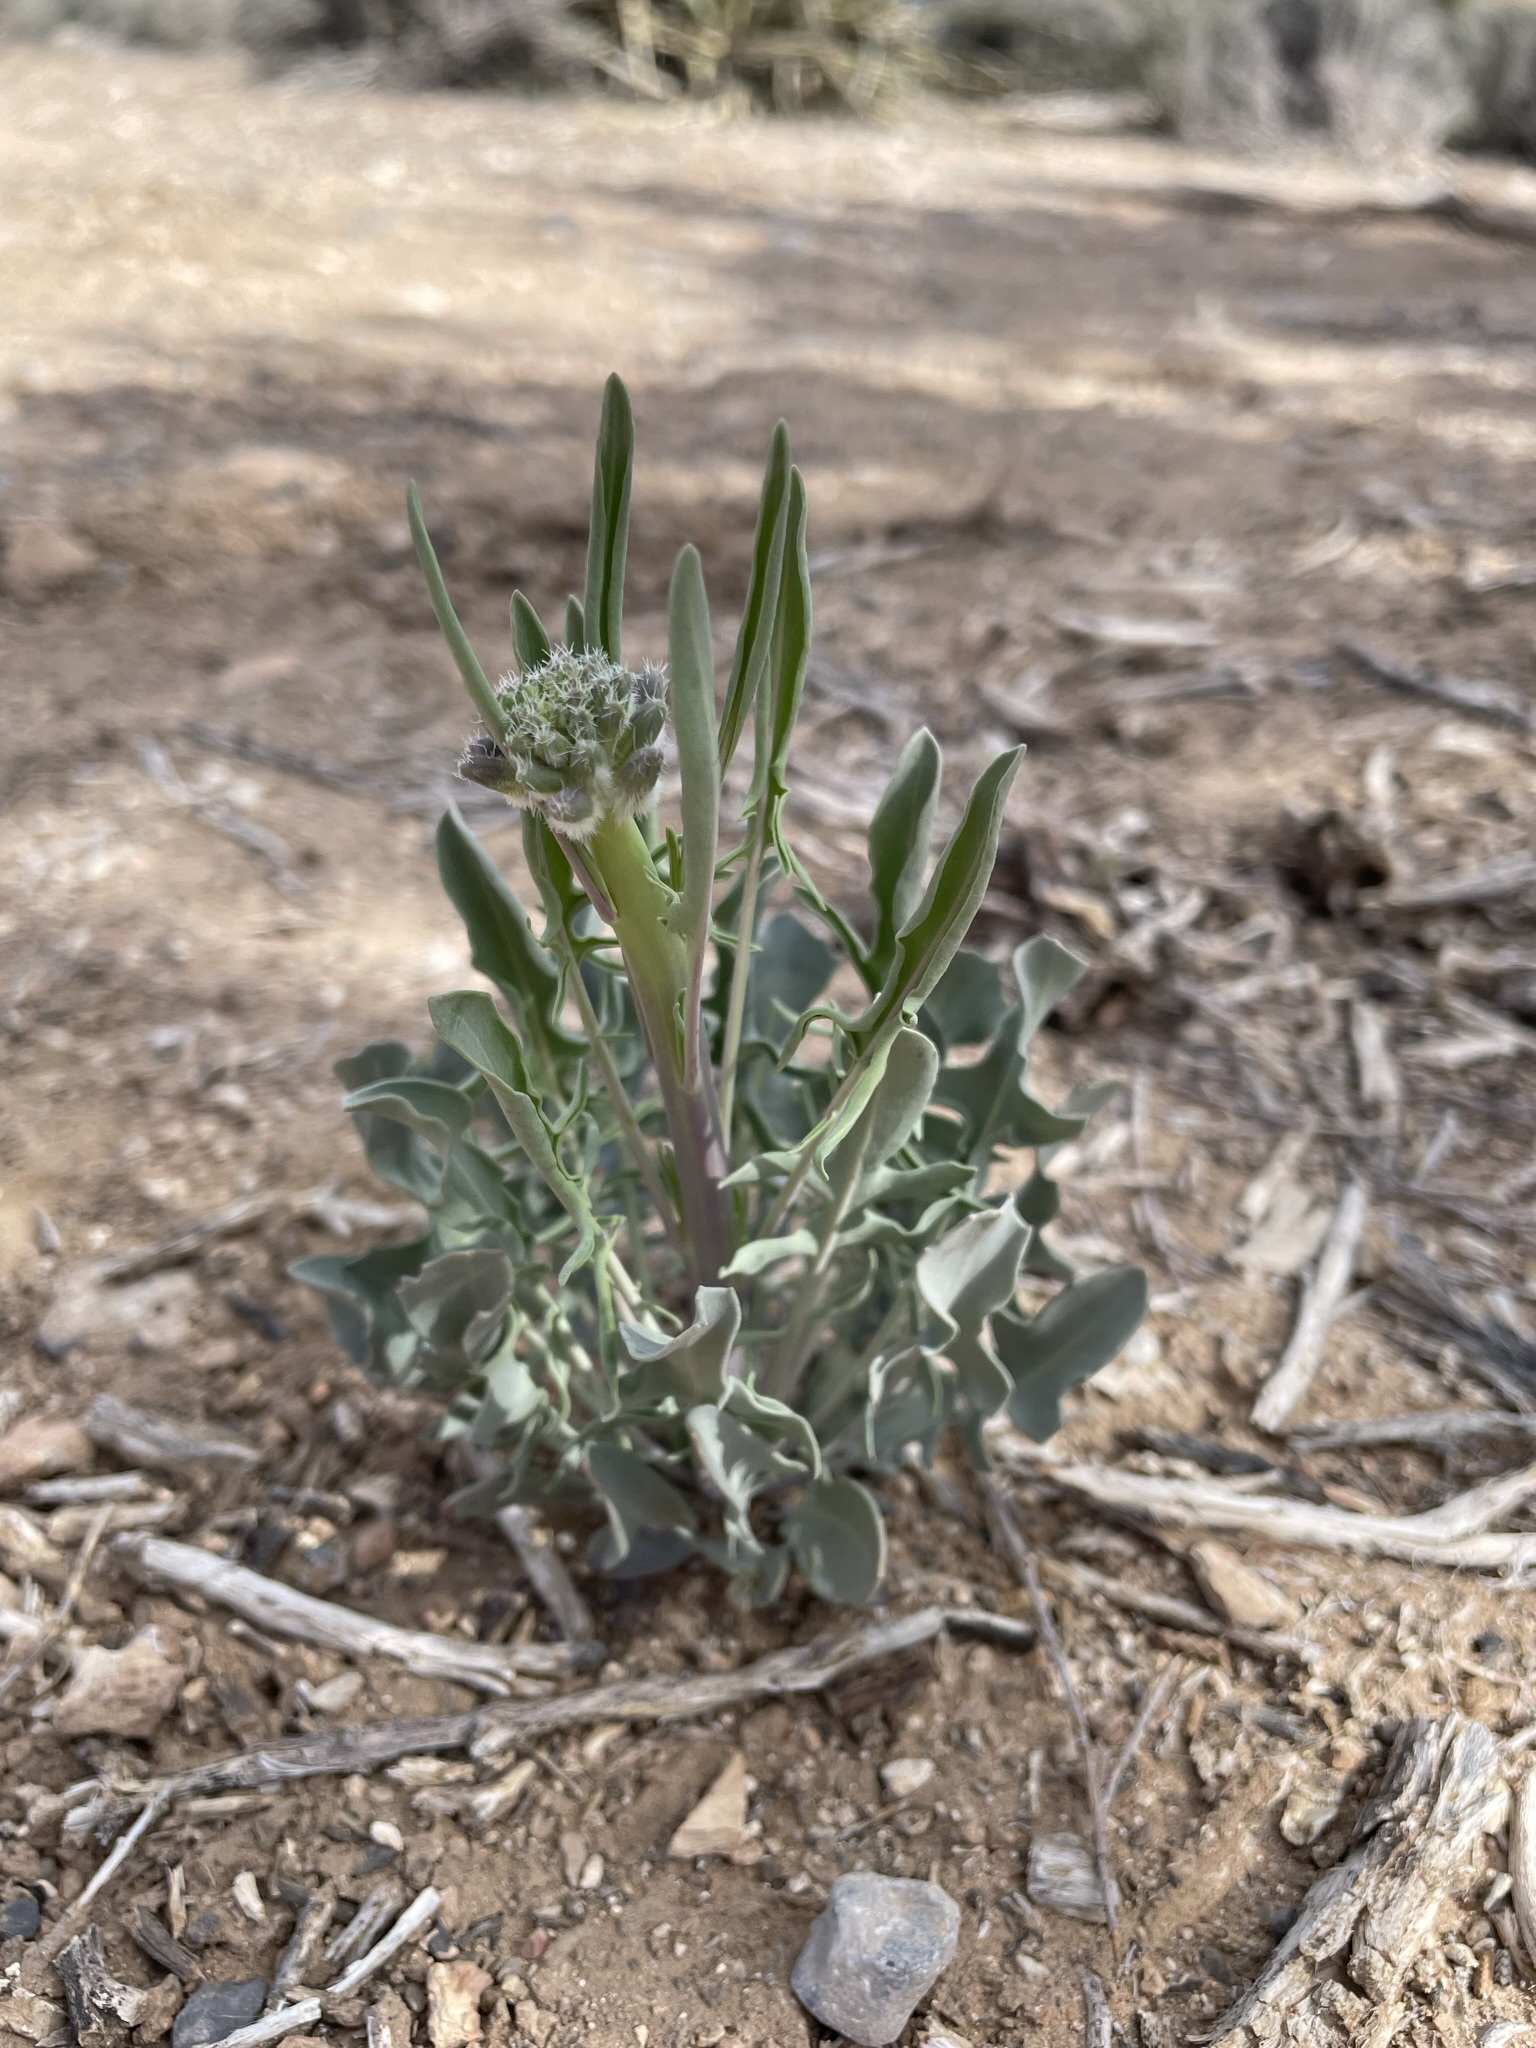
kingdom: Plantae
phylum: Tracheophyta
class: Magnoliopsida
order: Brassicales
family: Brassicaceae
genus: Streptanthus
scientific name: Streptanthus crassicaulis
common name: Thick-stem wild cabbage
